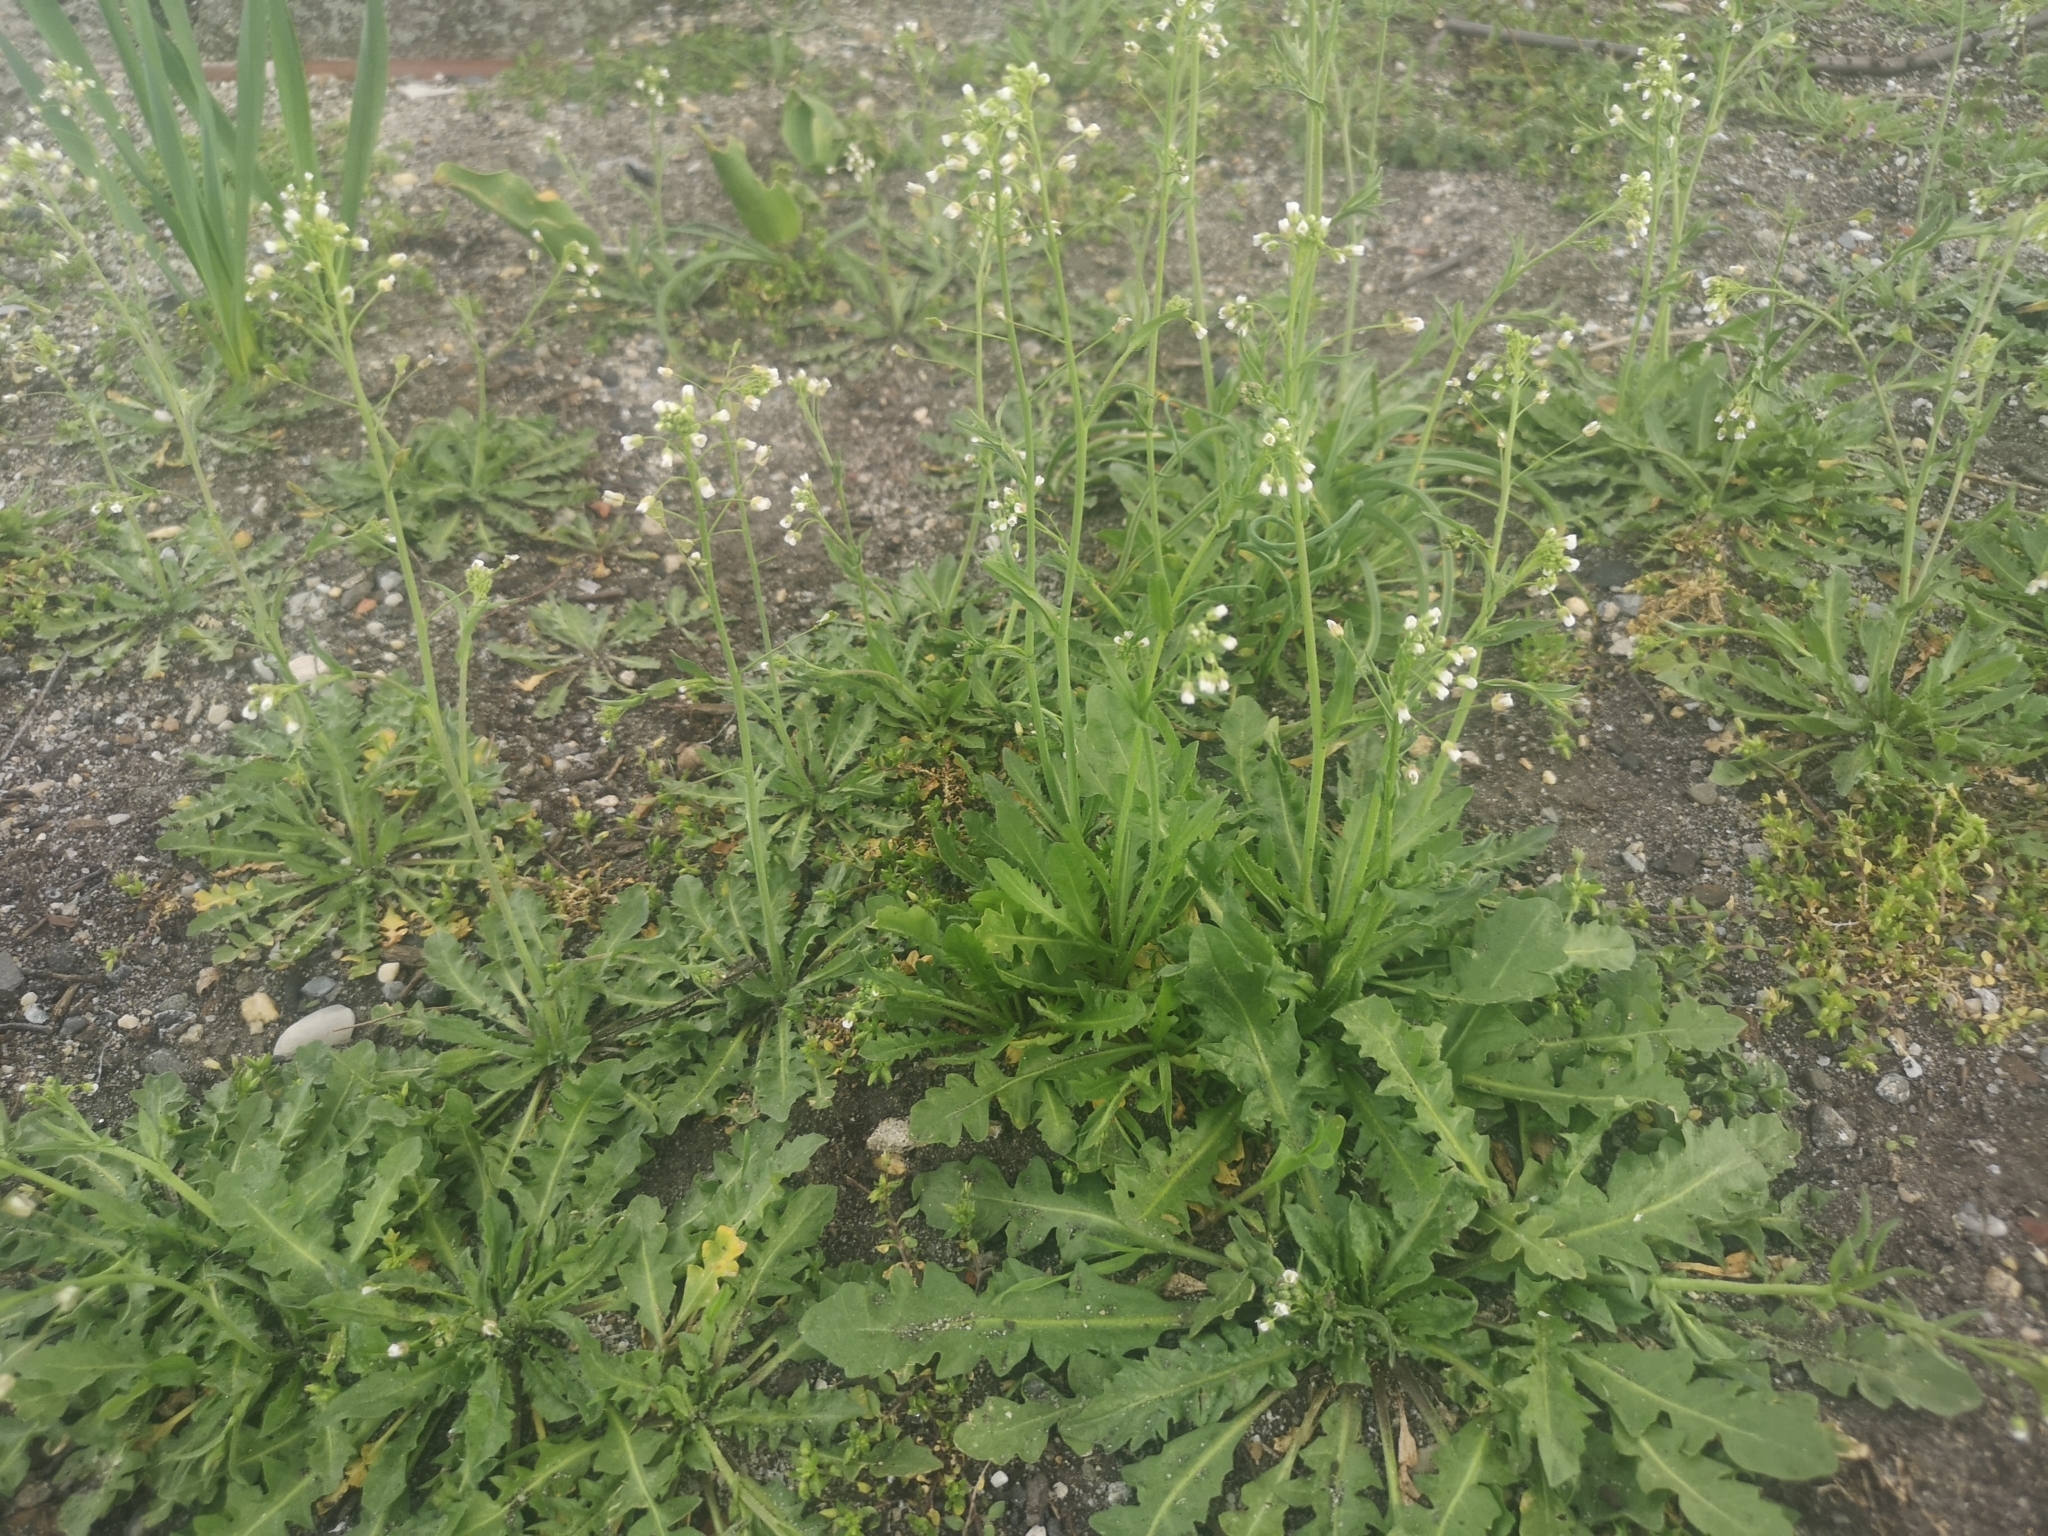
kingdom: Plantae
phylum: Tracheophyta
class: Magnoliopsida
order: Brassicales
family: Brassicaceae
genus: Capsella
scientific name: Capsella bursa-pastoris
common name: Shepherd's purse
